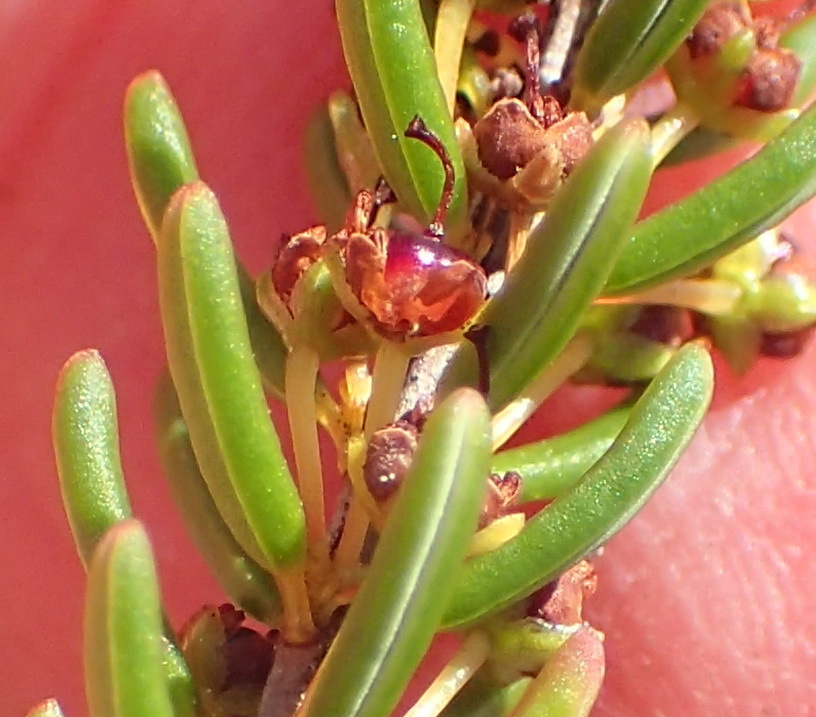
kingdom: Plantae
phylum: Tracheophyta
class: Magnoliopsida
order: Ericales
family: Ericaceae
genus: Erica
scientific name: Erica coarctata
